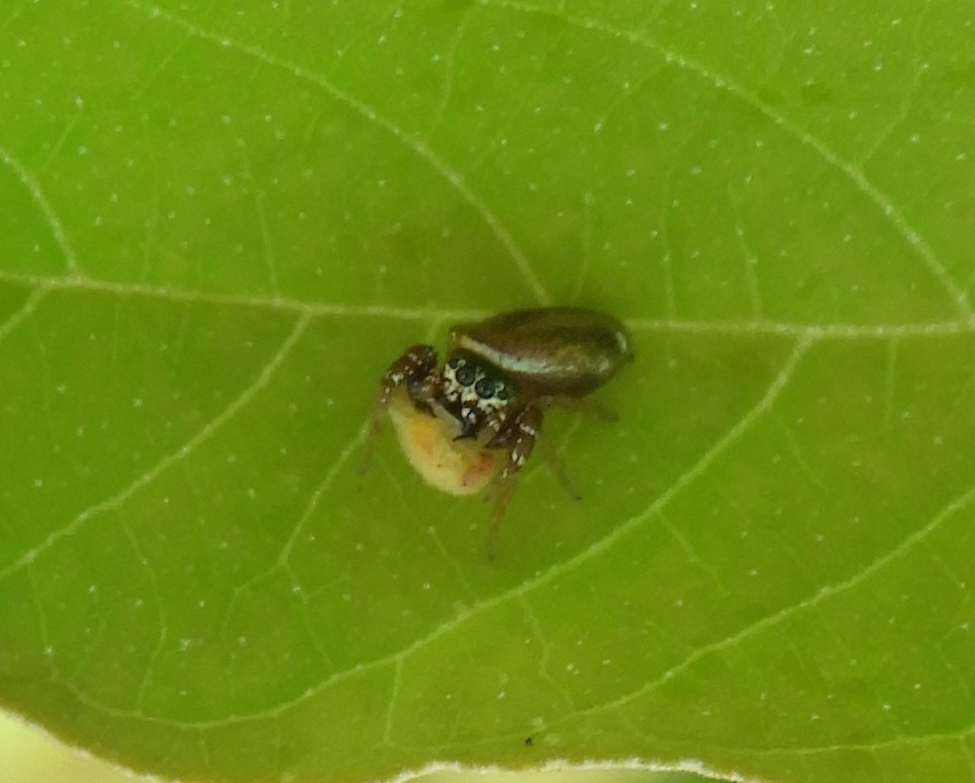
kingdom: Animalia
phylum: Arthropoda
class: Arachnida
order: Araneae
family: Salticidae
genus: Sassacus
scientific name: Sassacus vitis
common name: Jumping spiders
